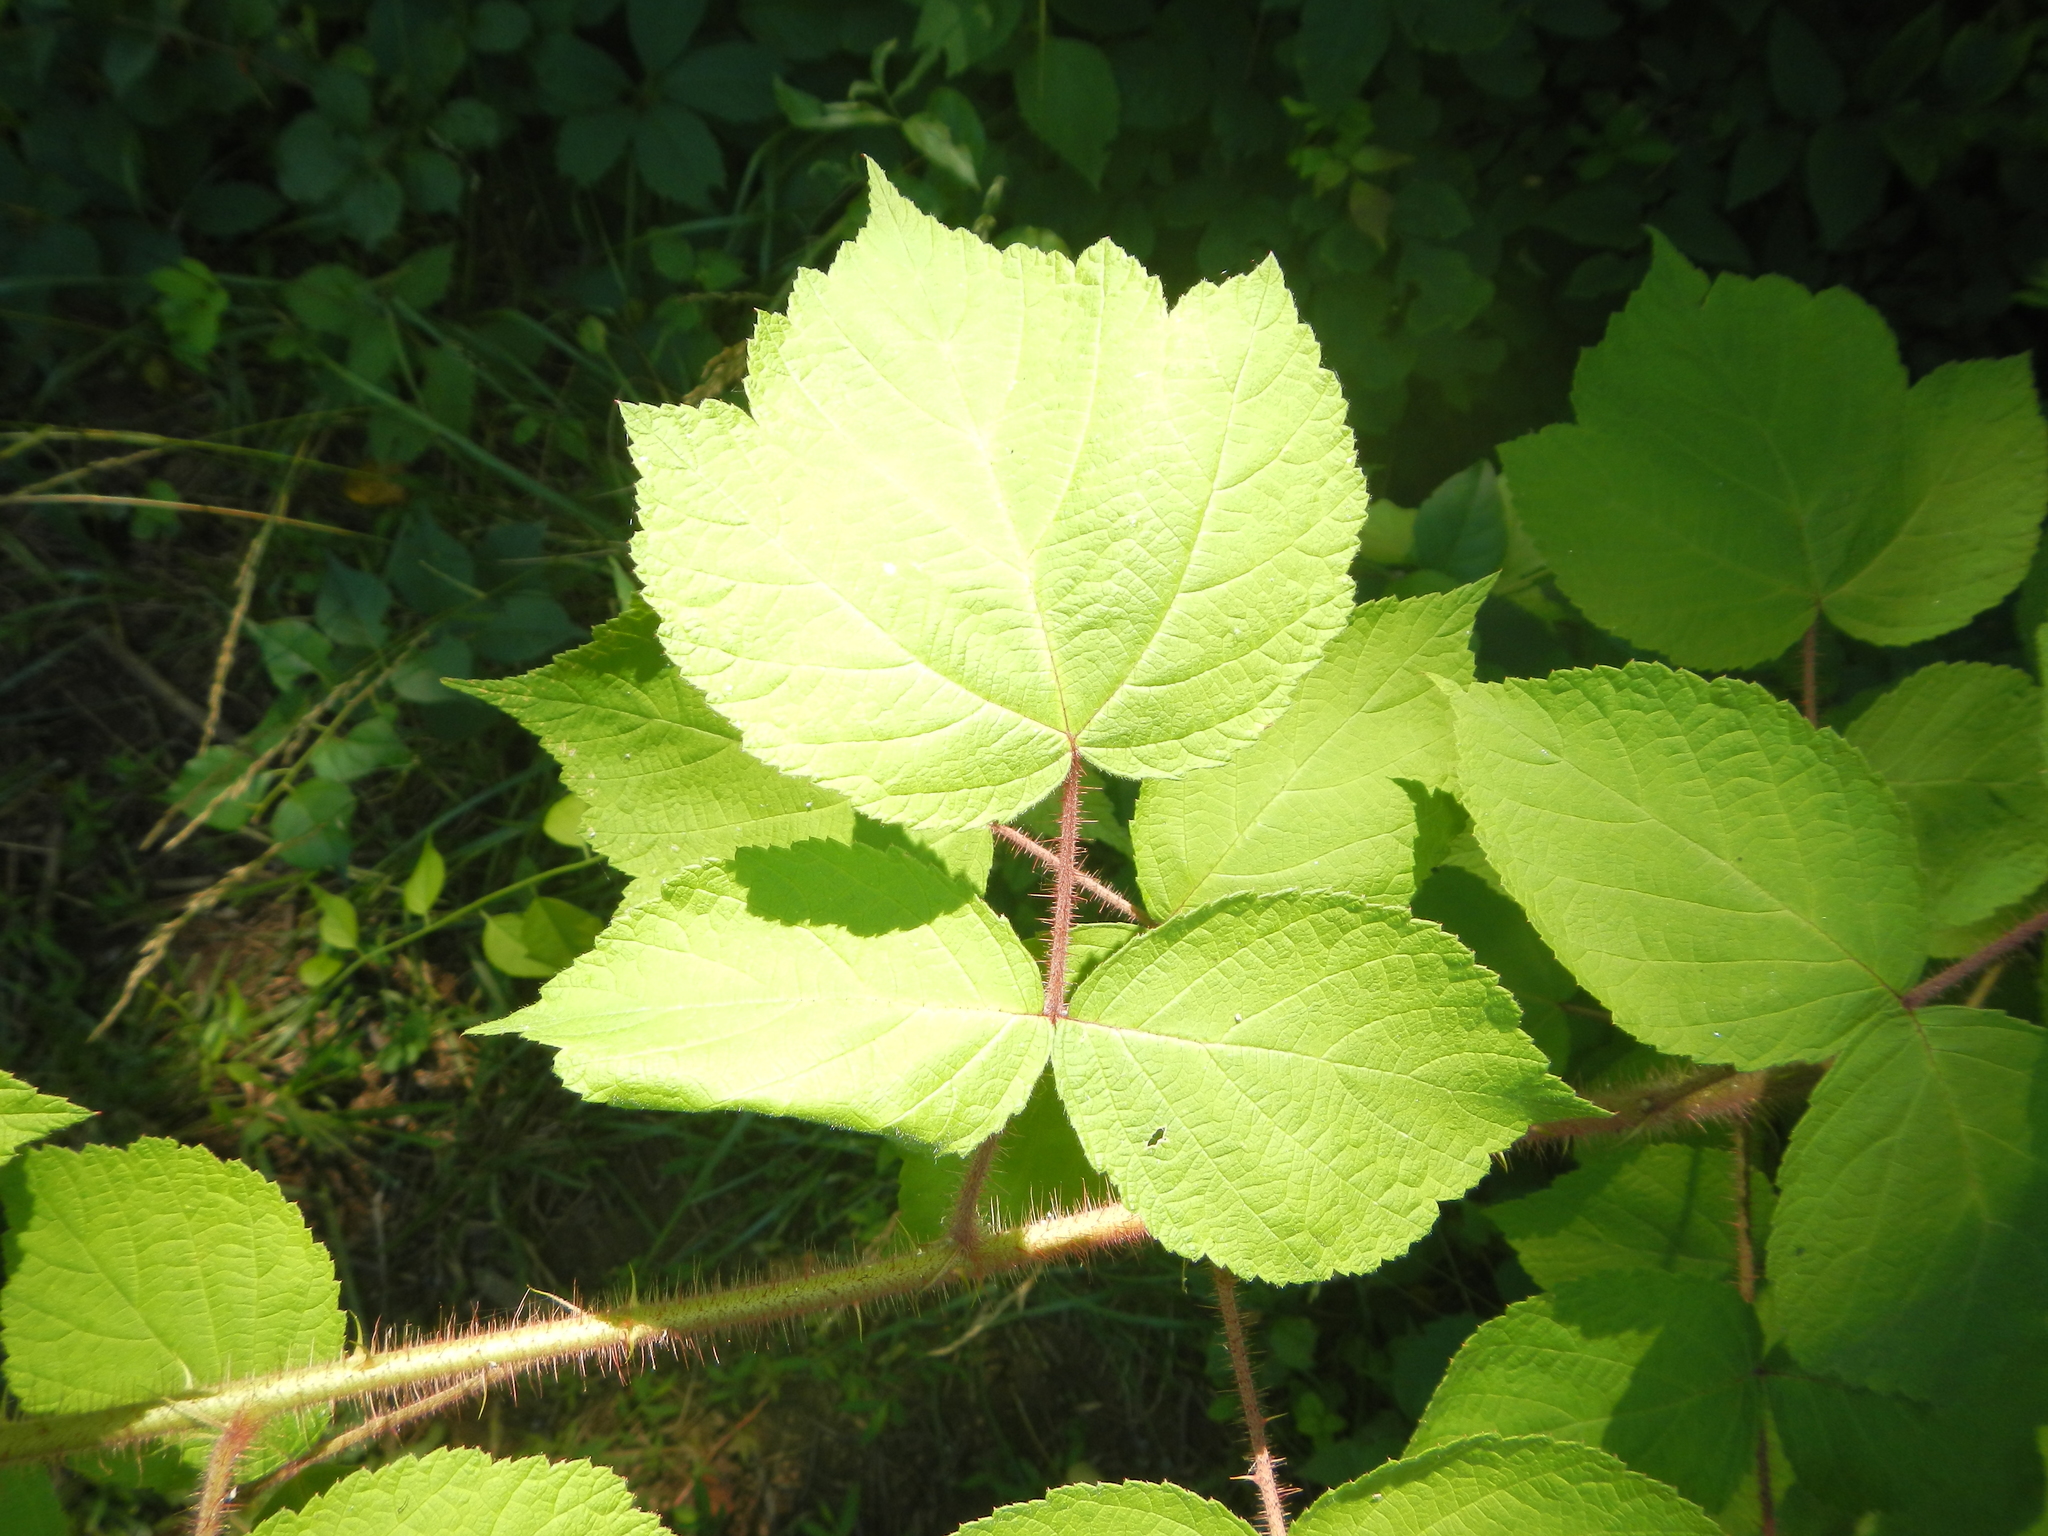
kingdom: Plantae
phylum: Tracheophyta
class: Magnoliopsida
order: Rosales
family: Rosaceae
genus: Rubus
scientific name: Rubus phoenicolasius
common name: Japanese wineberry
